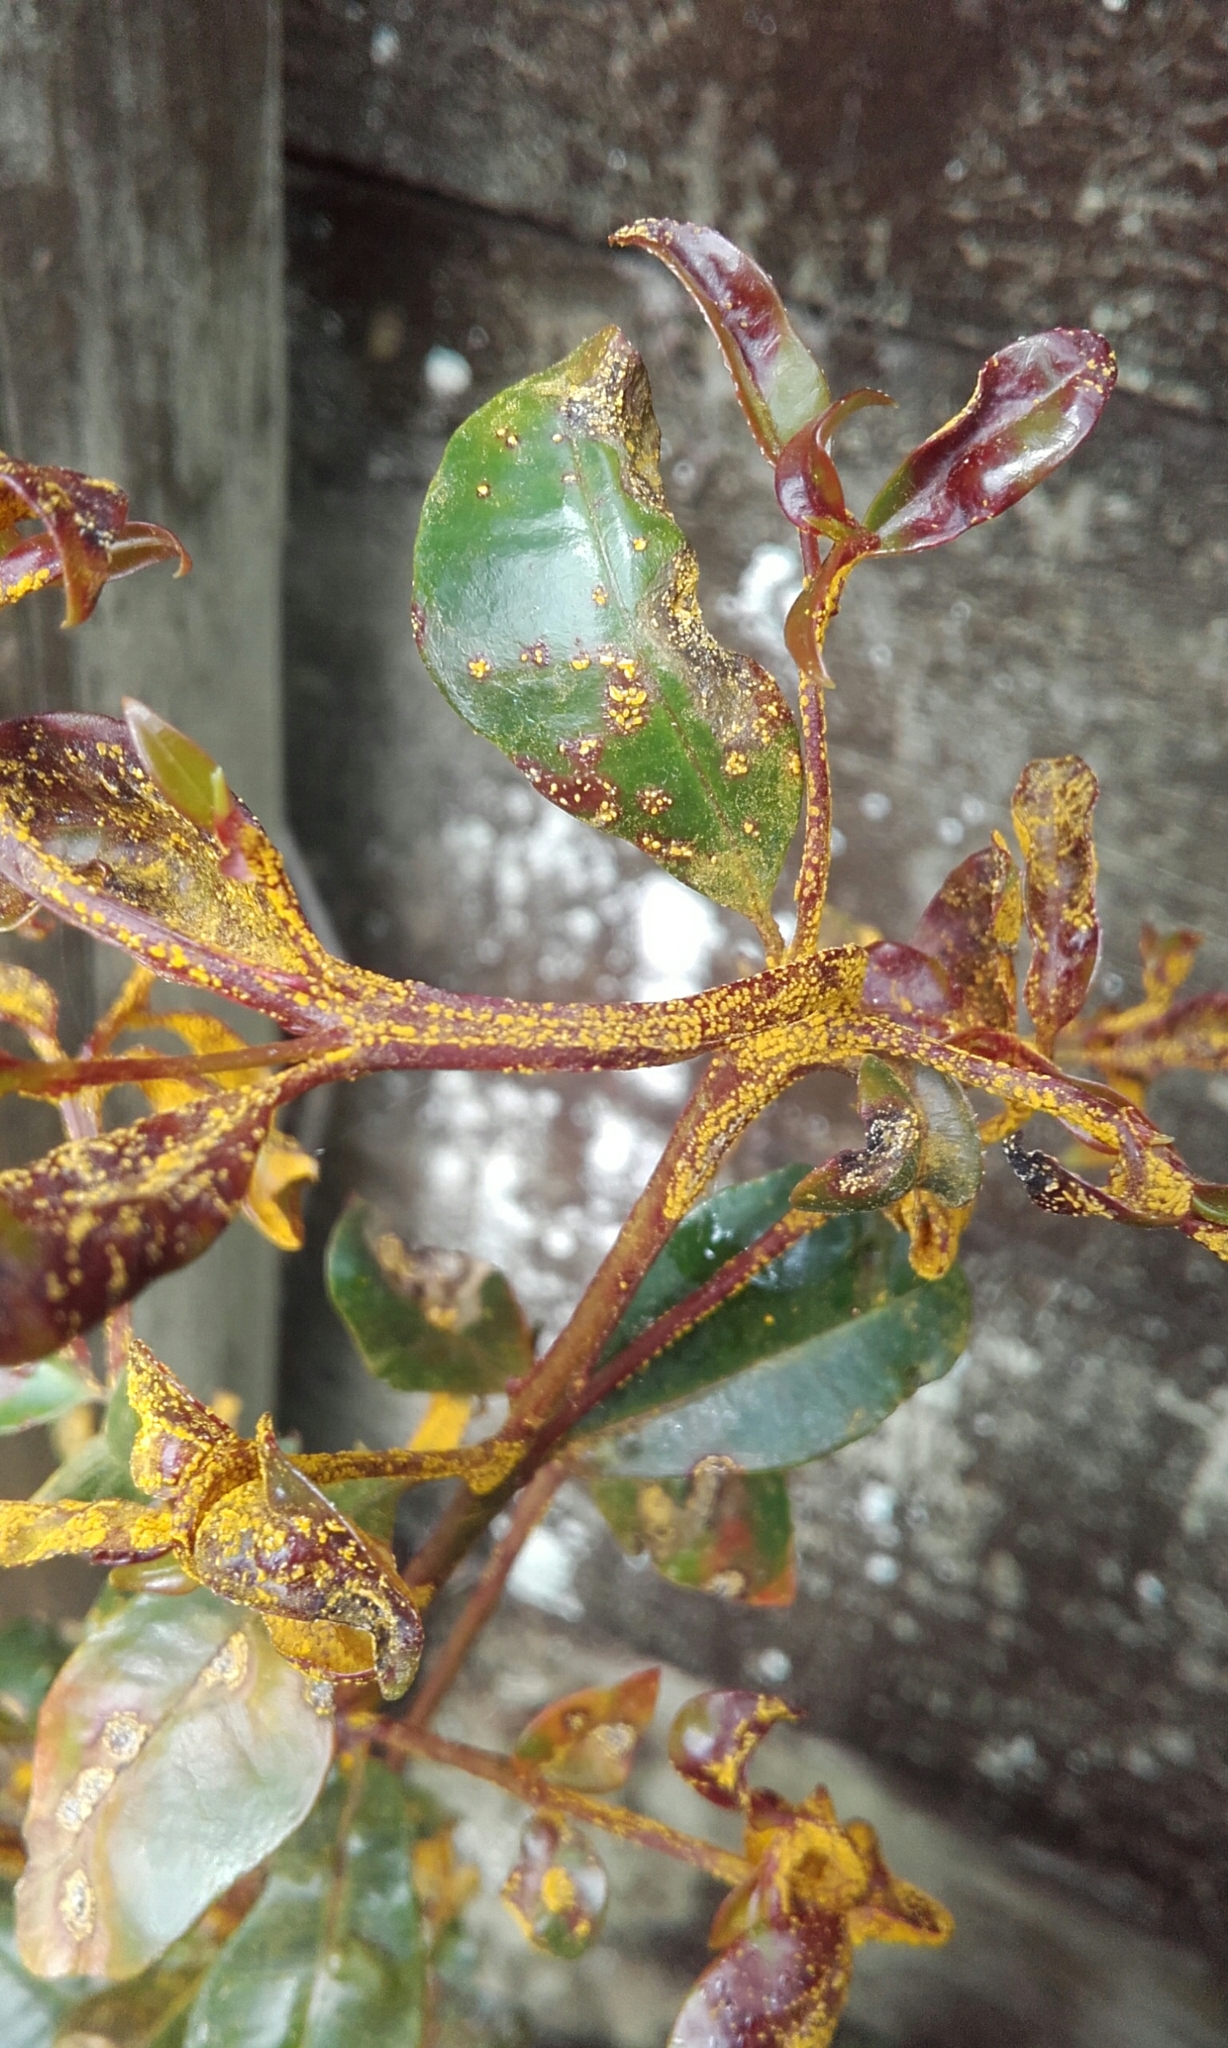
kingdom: Fungi
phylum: Basidiomycota
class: Pucciniomycetes
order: Pucciniales
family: Sphaerophragmiaceae
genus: Austropuccinia
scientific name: Austropuccinia psidii
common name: Myrtle rust
